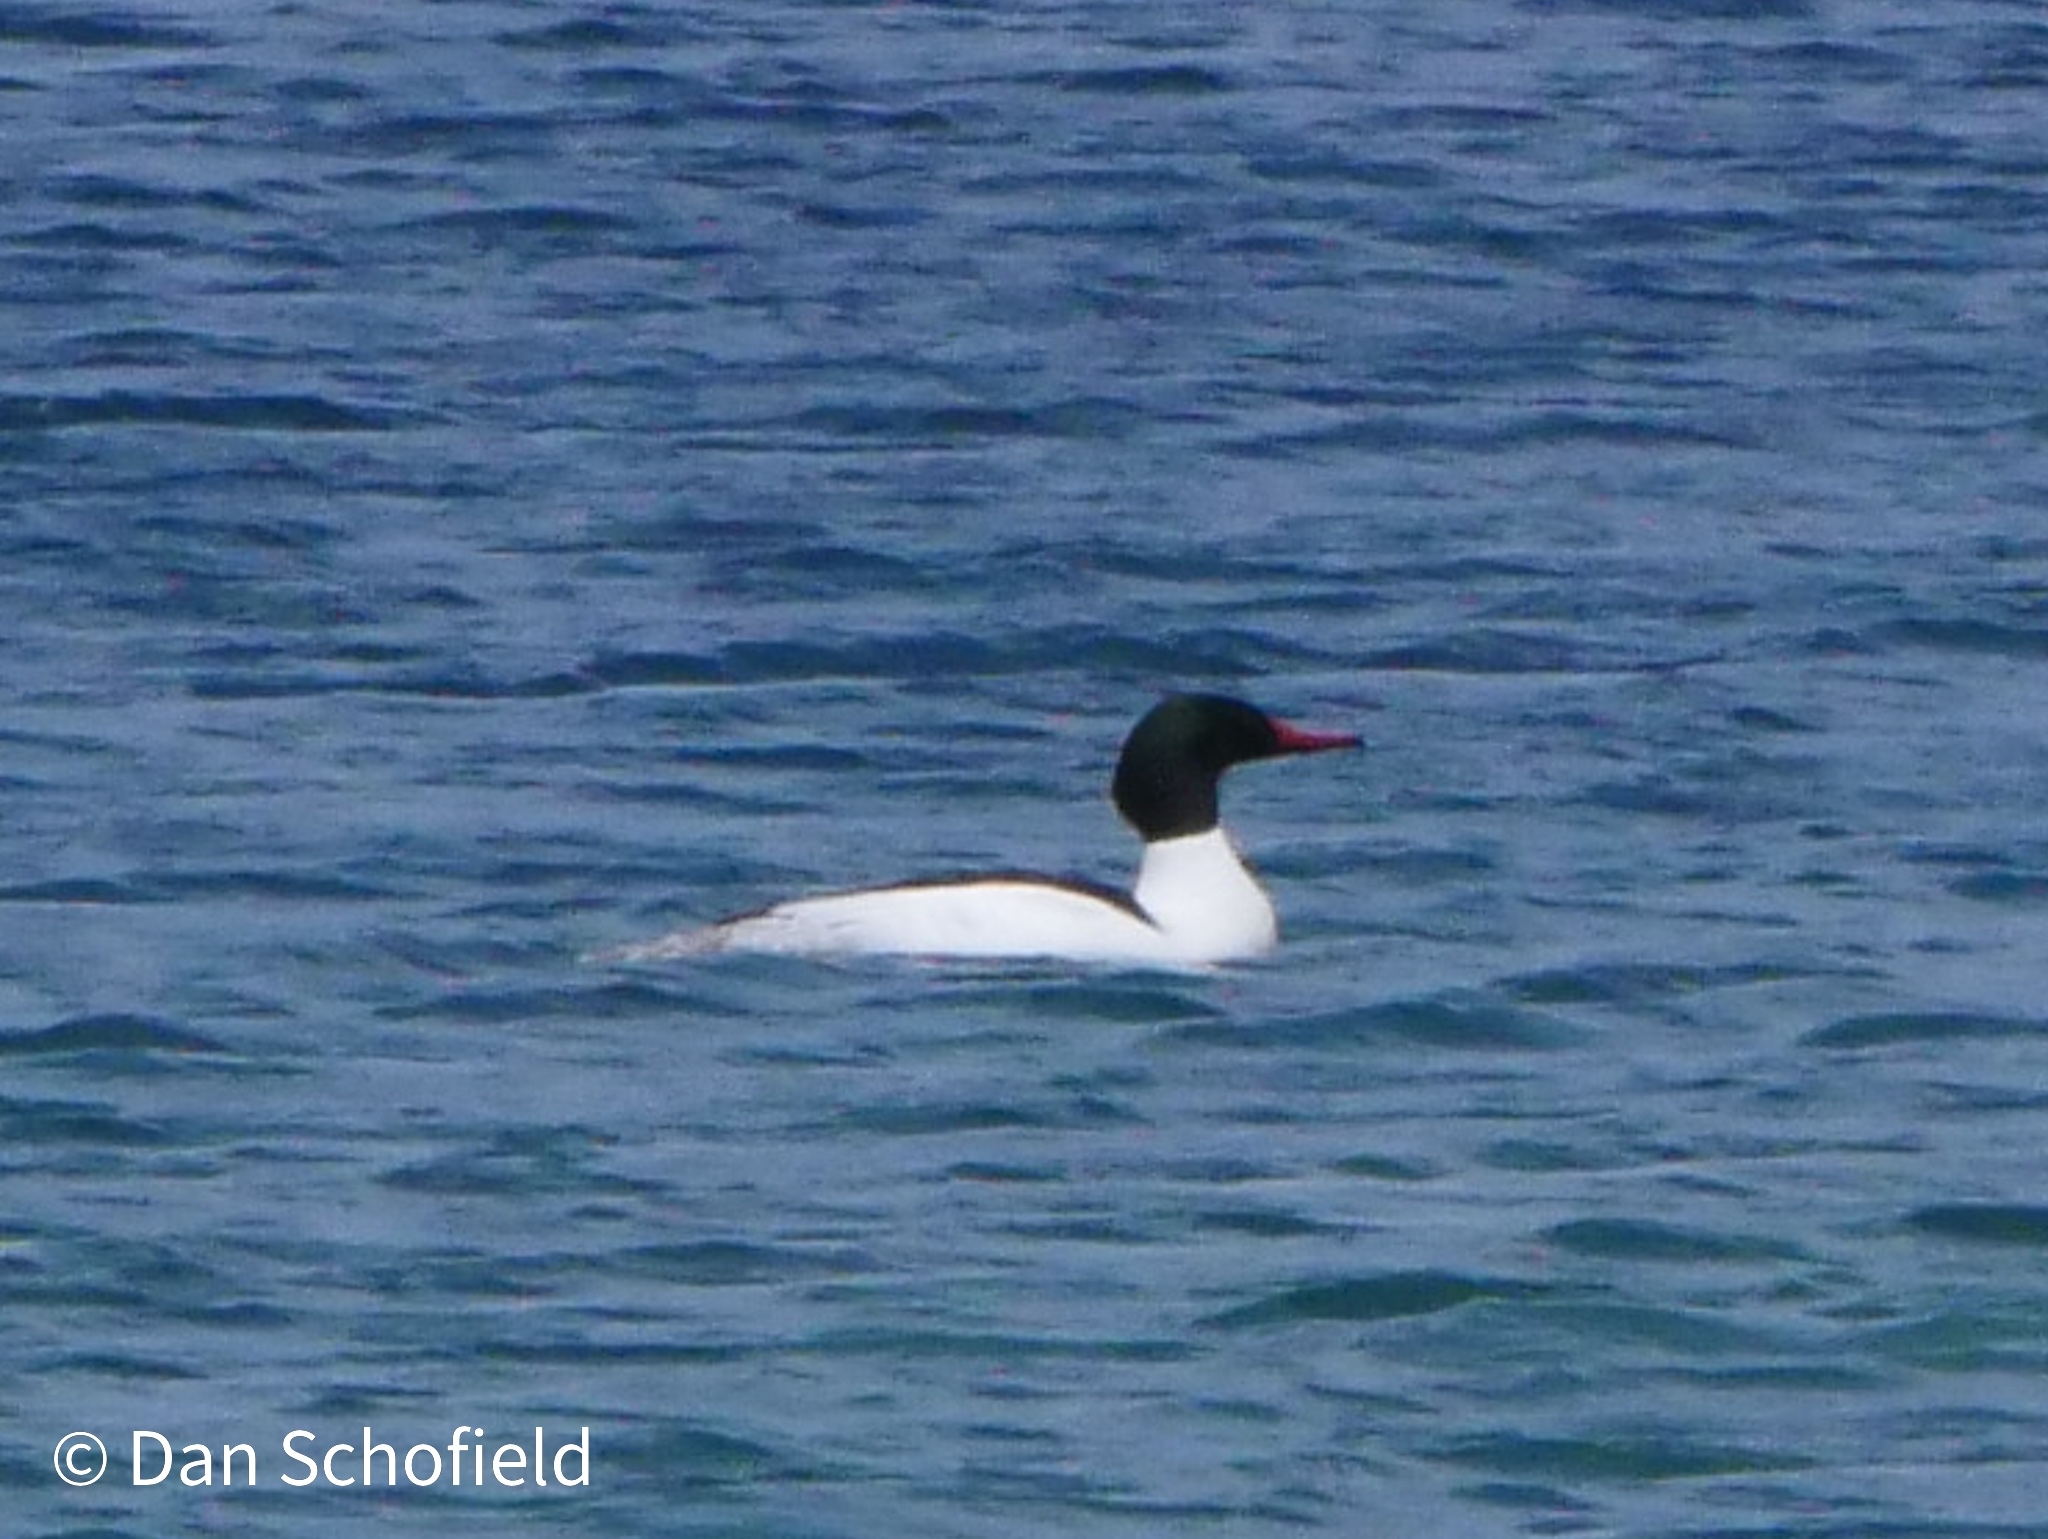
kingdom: Animalia
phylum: Chordata
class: Aves
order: Anseriformes
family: Anatidae
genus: Mergus
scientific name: Mergus merganser
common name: Common merganser
